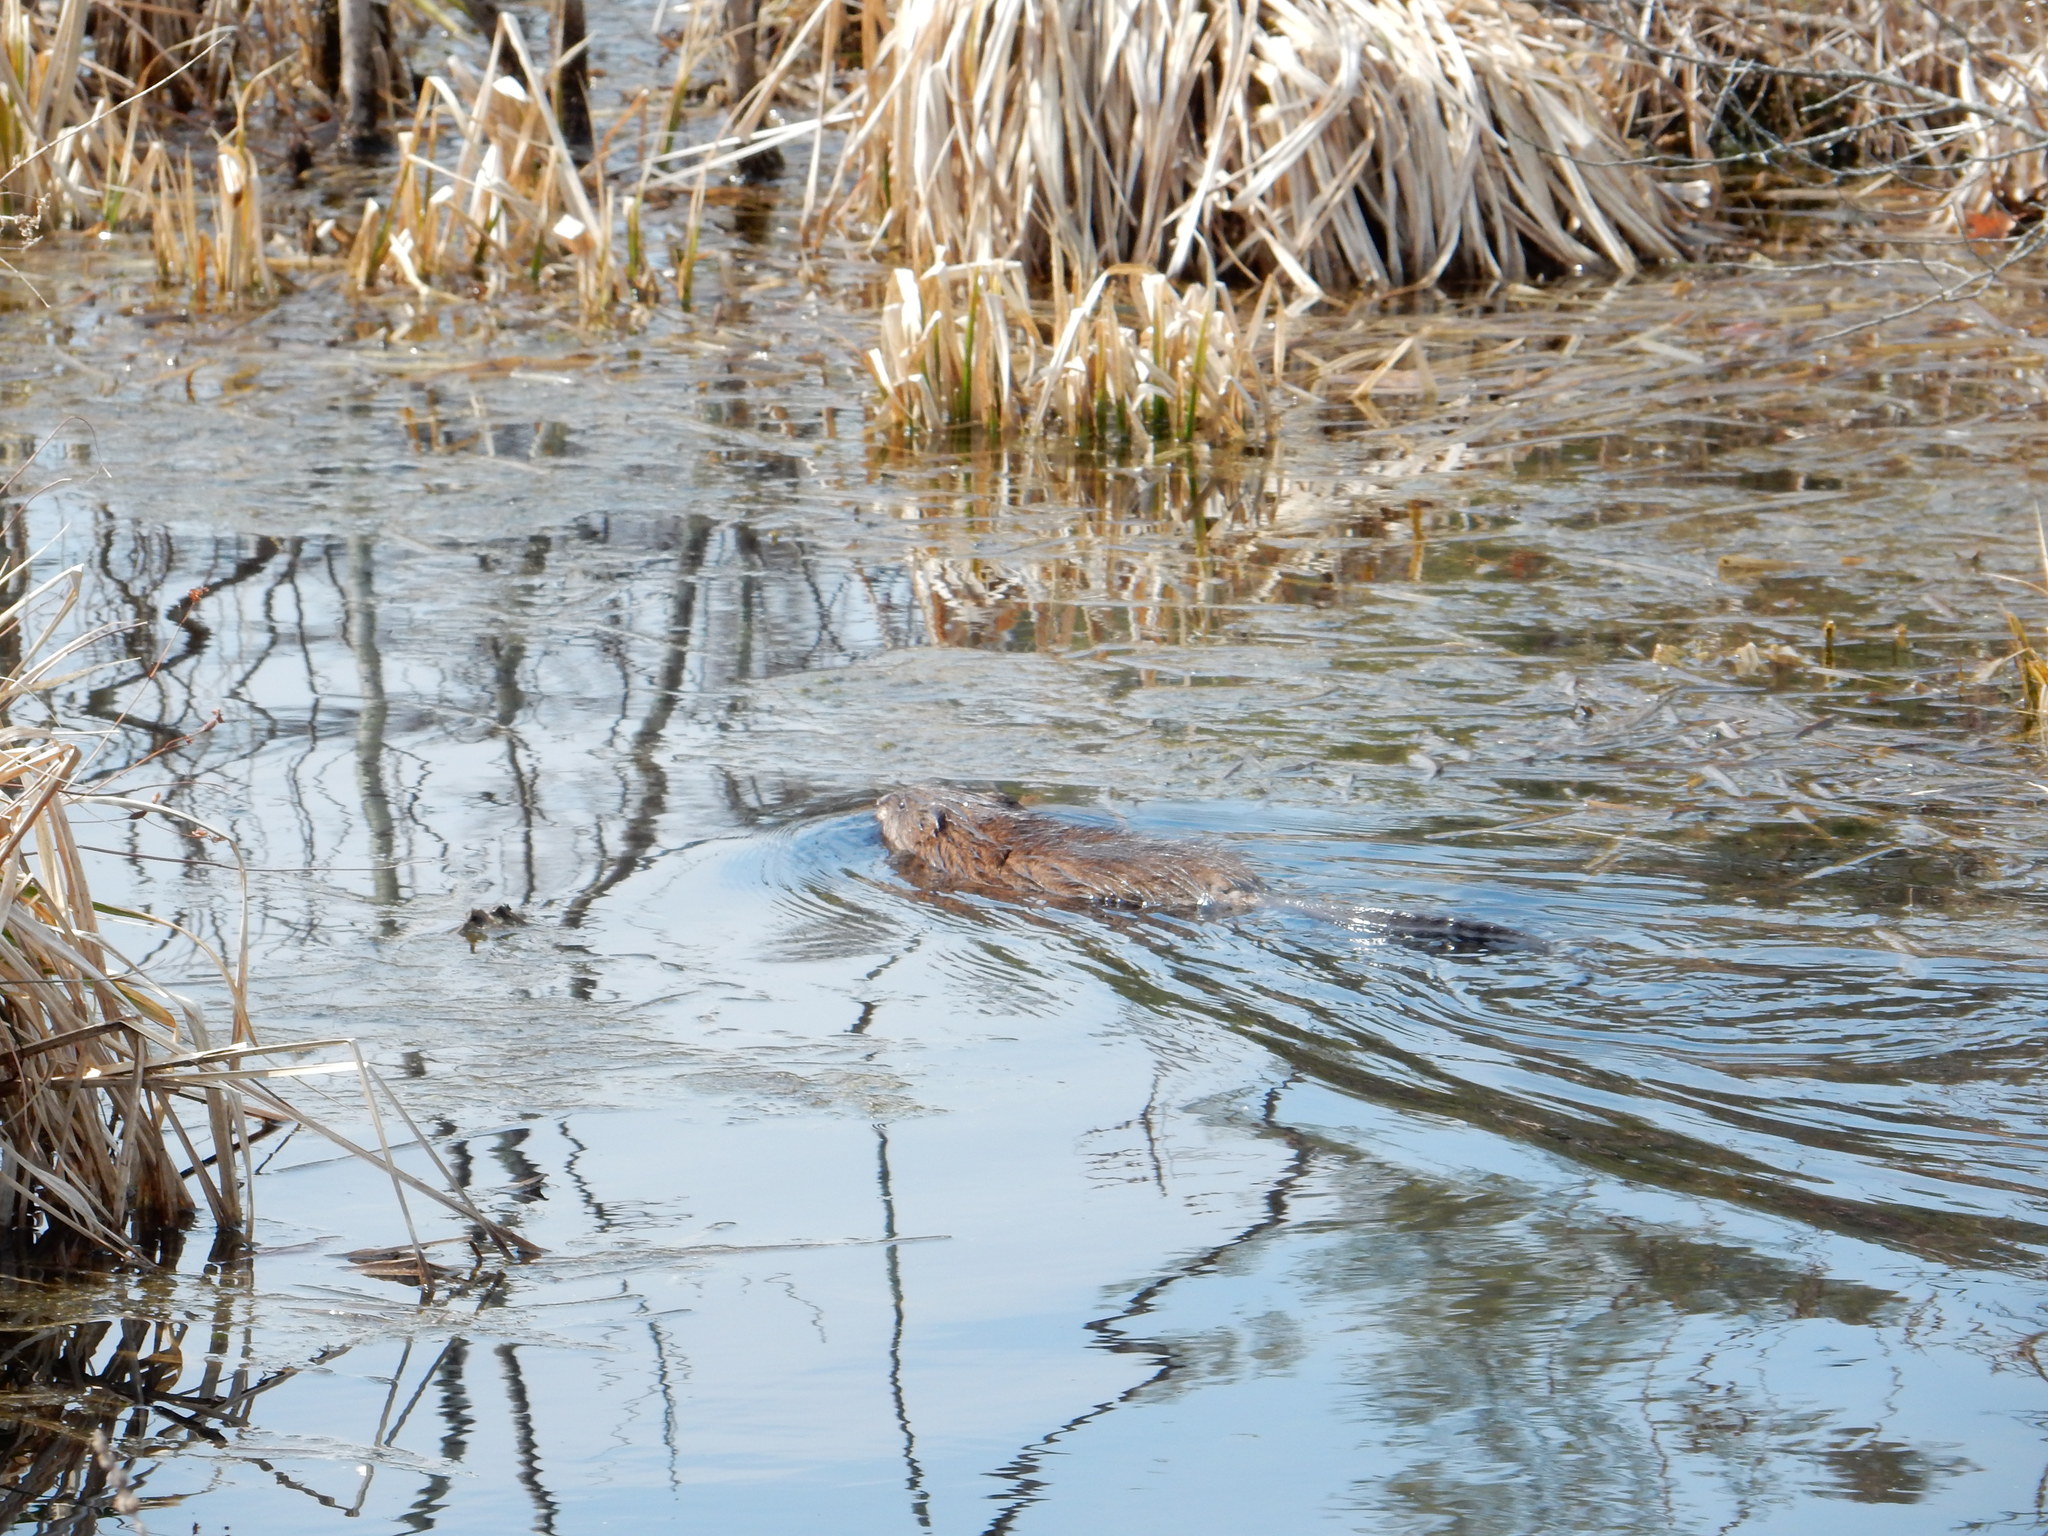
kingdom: Animalia
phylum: Chordata
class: Mammalia
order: Rodentia
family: Cricetidae
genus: Ondatra
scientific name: Ondatra zibethicus
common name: Muskrat
